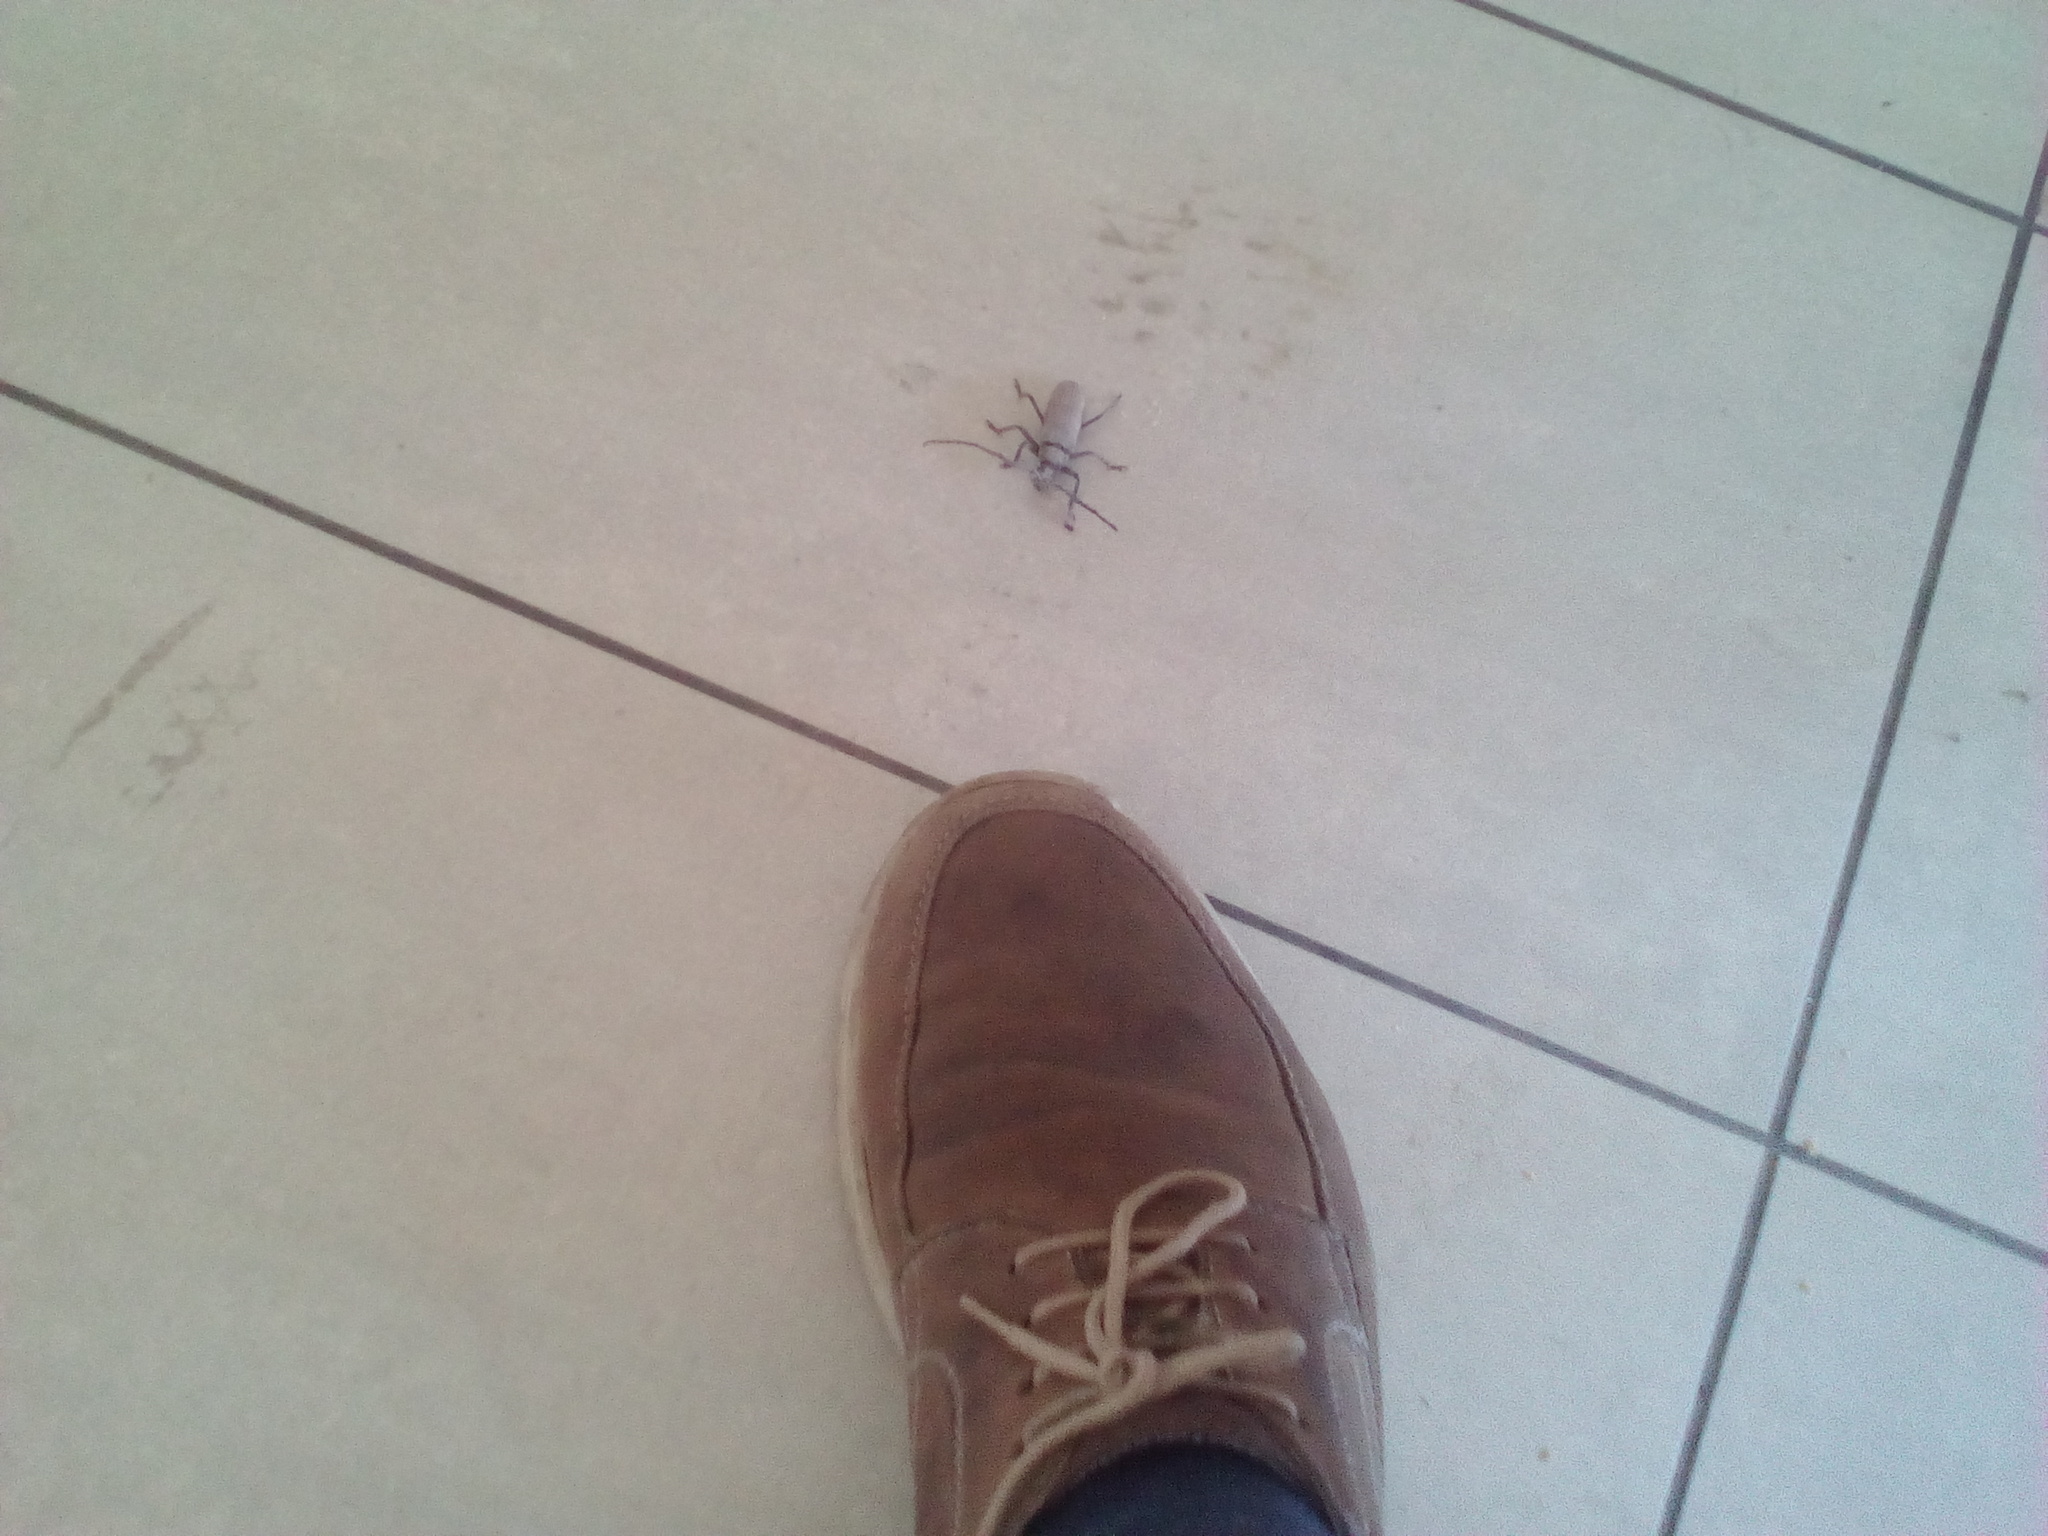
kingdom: Animalia
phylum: Arthropoda
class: Insecta
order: Coleoptera
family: Cerambycidae
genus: Aegosoma
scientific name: Aegosoma scabricorne
